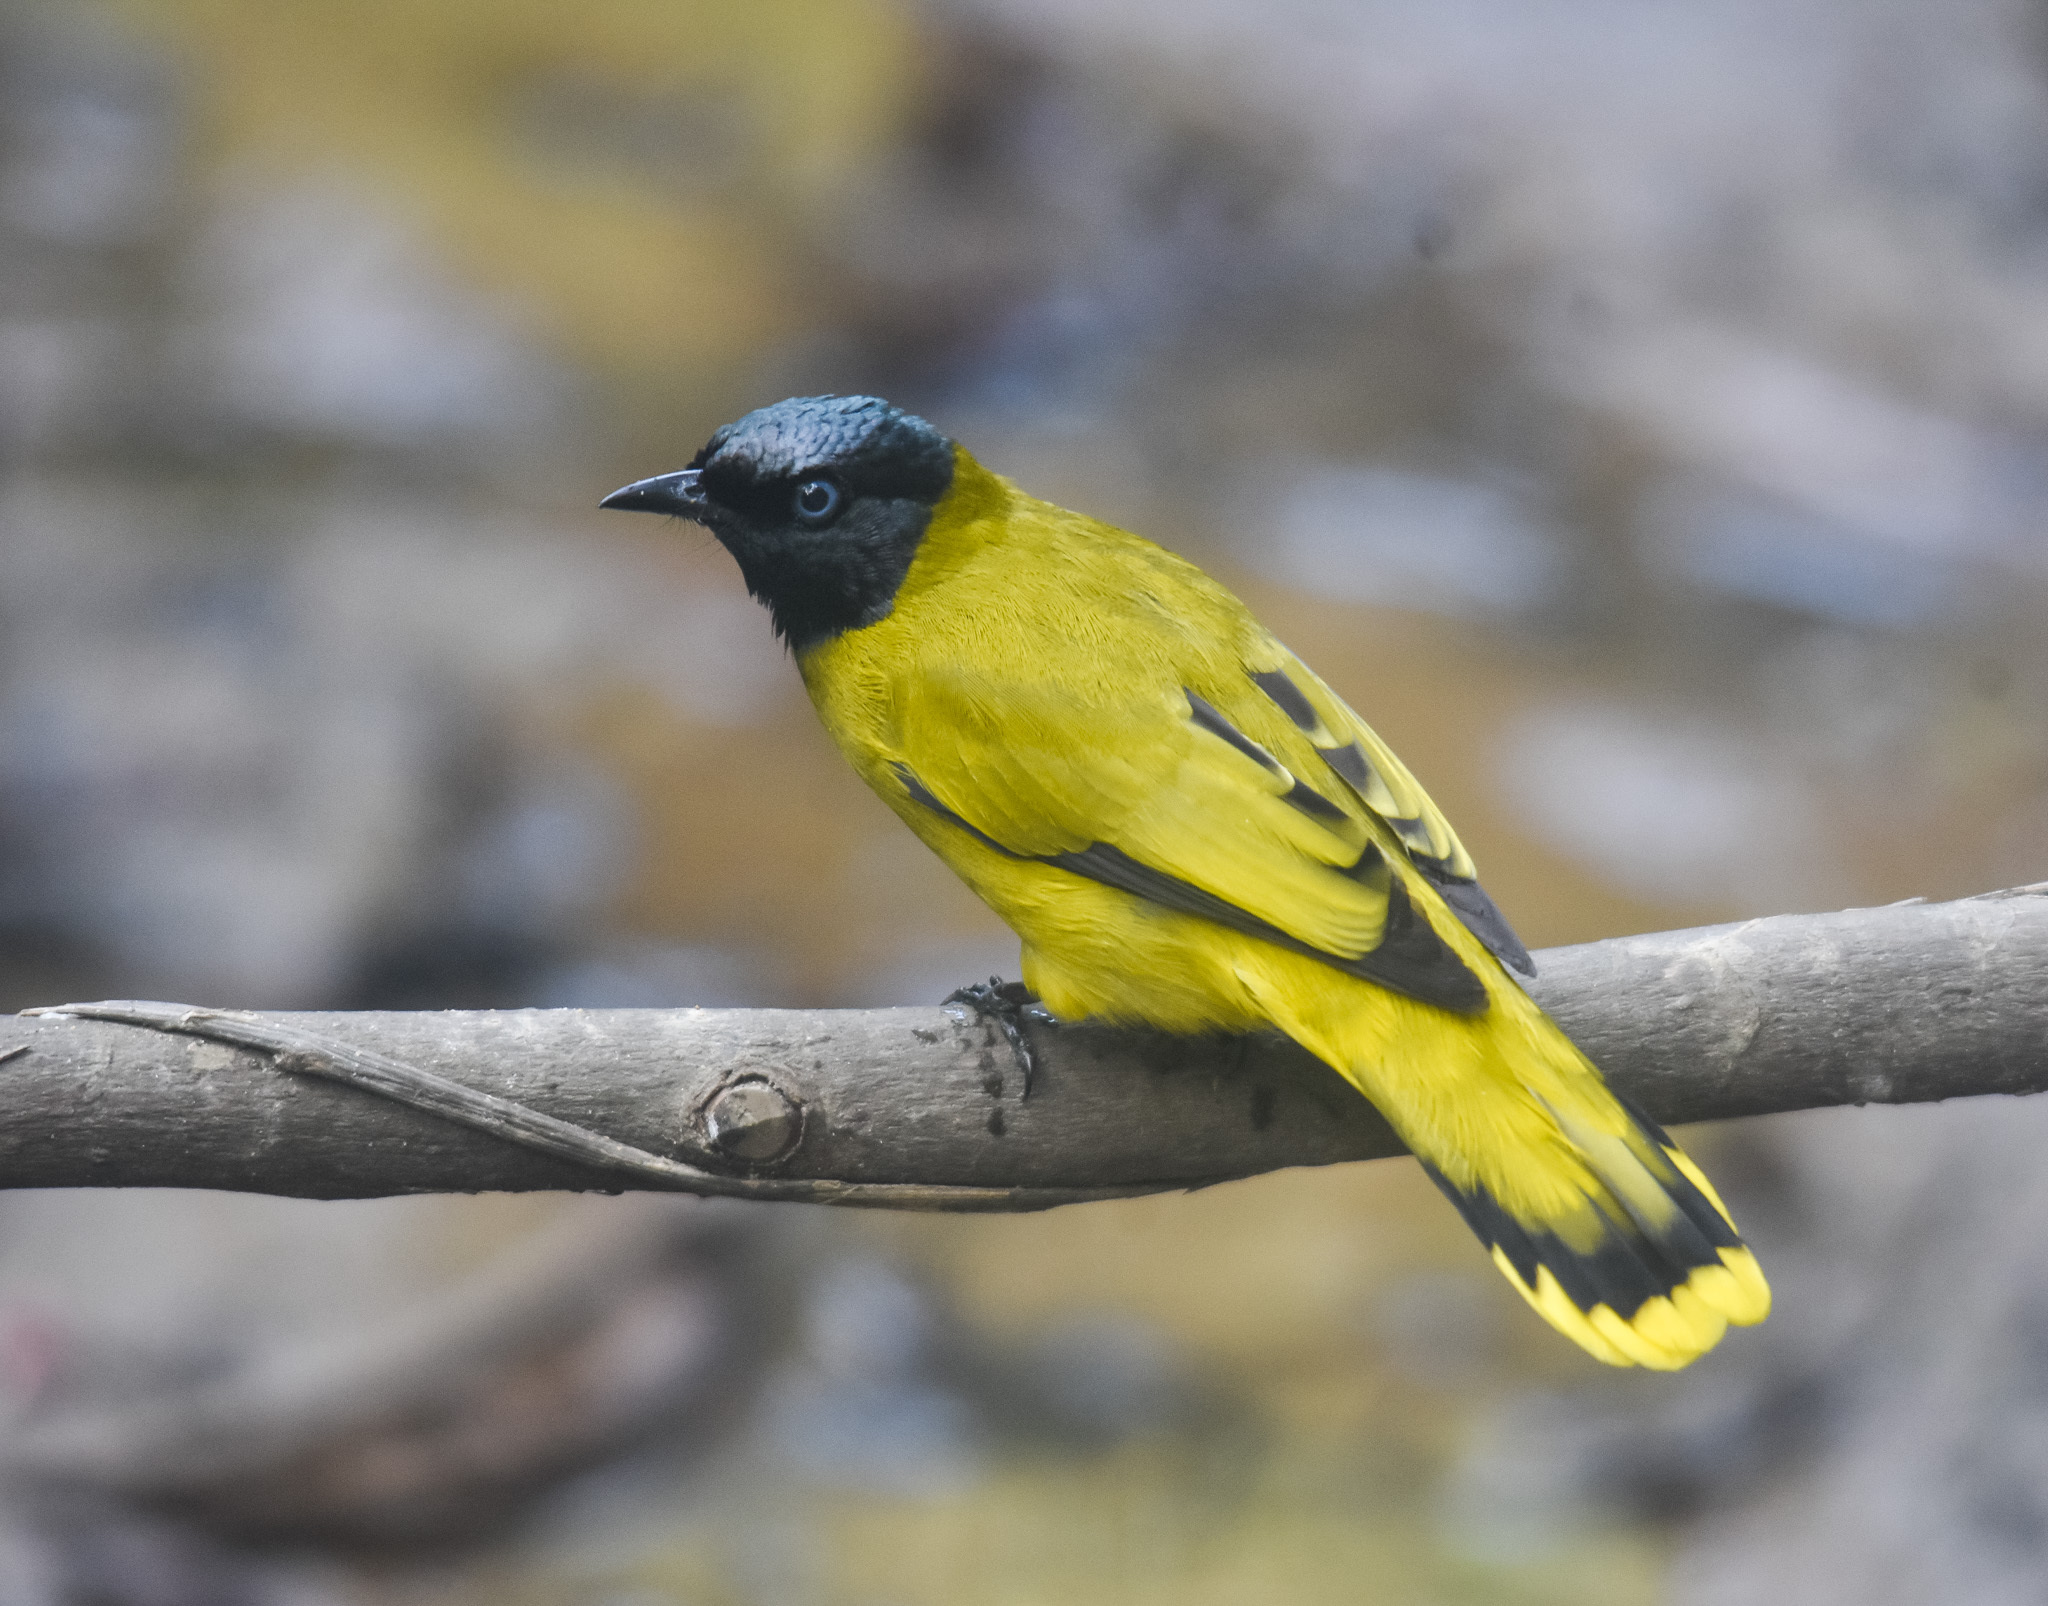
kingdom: Animalia
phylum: Chordata
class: Aves
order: Passeriformes
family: Pycnonotidae
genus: Microtarsus
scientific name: Microtarsus
